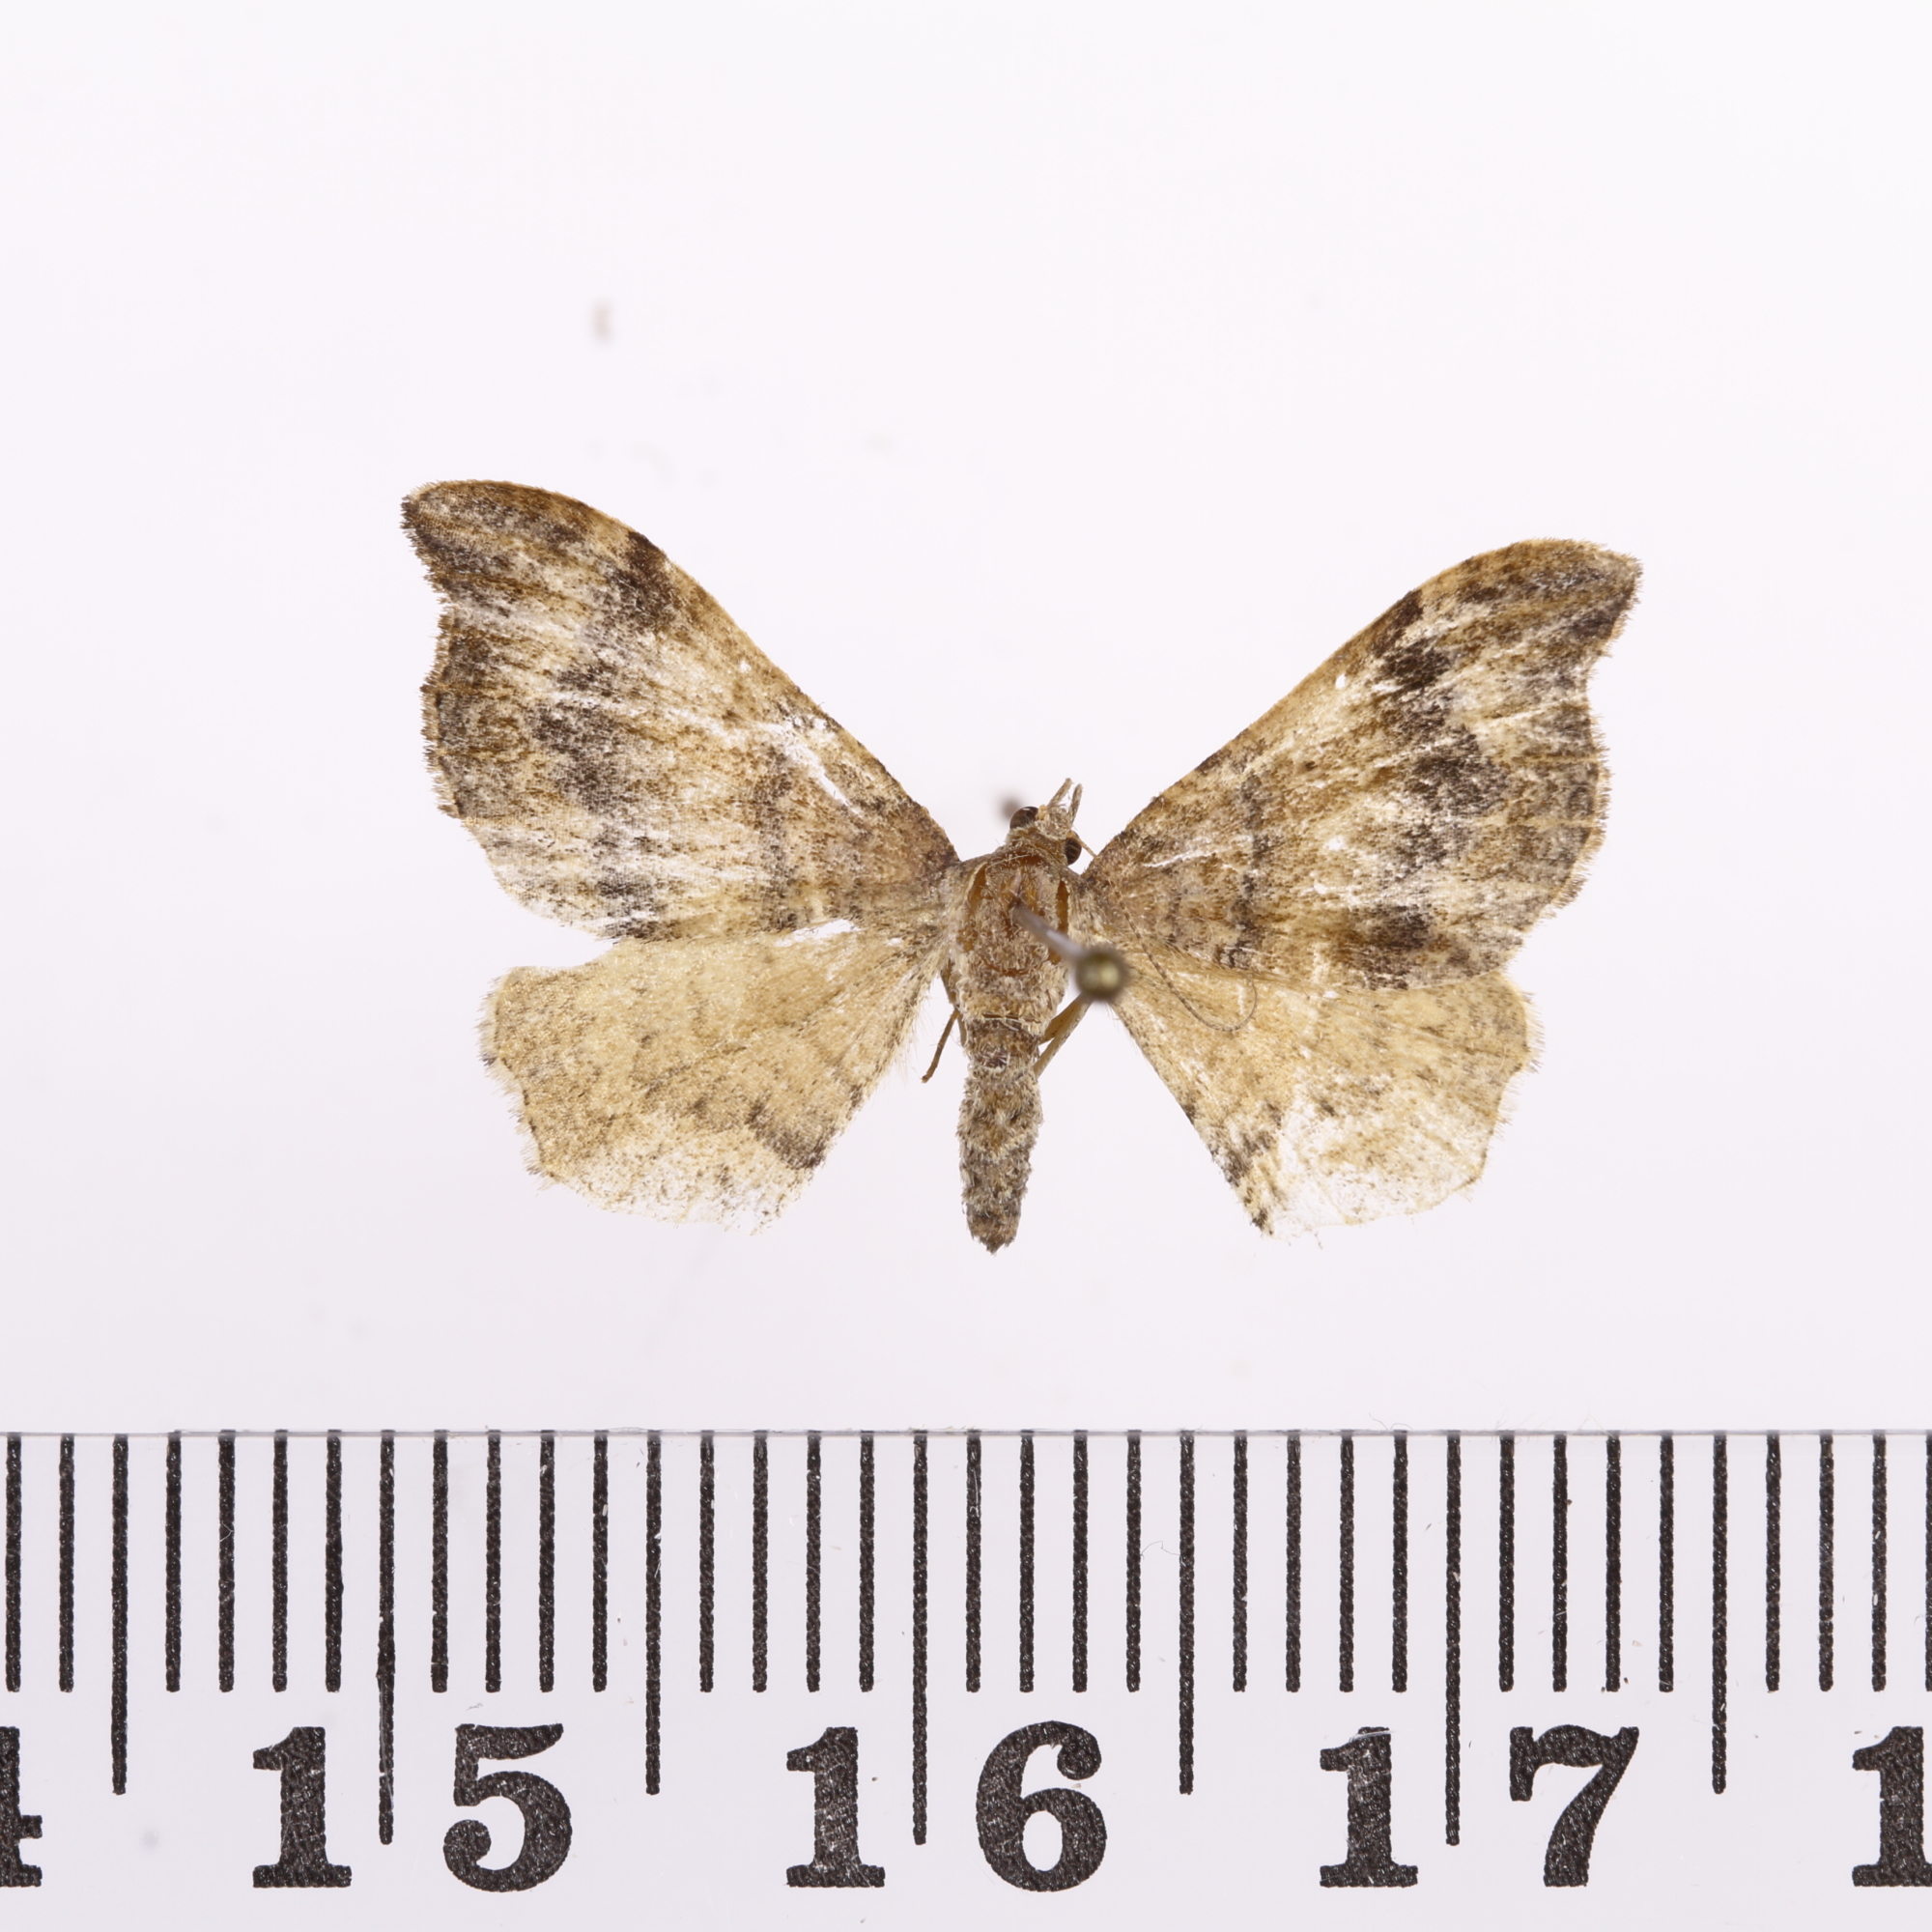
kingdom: Animalia
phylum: Arthropoda
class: Insecta
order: Lepidoptera
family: Geometridae
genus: Homodotis
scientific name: Homodotis megaspilata
